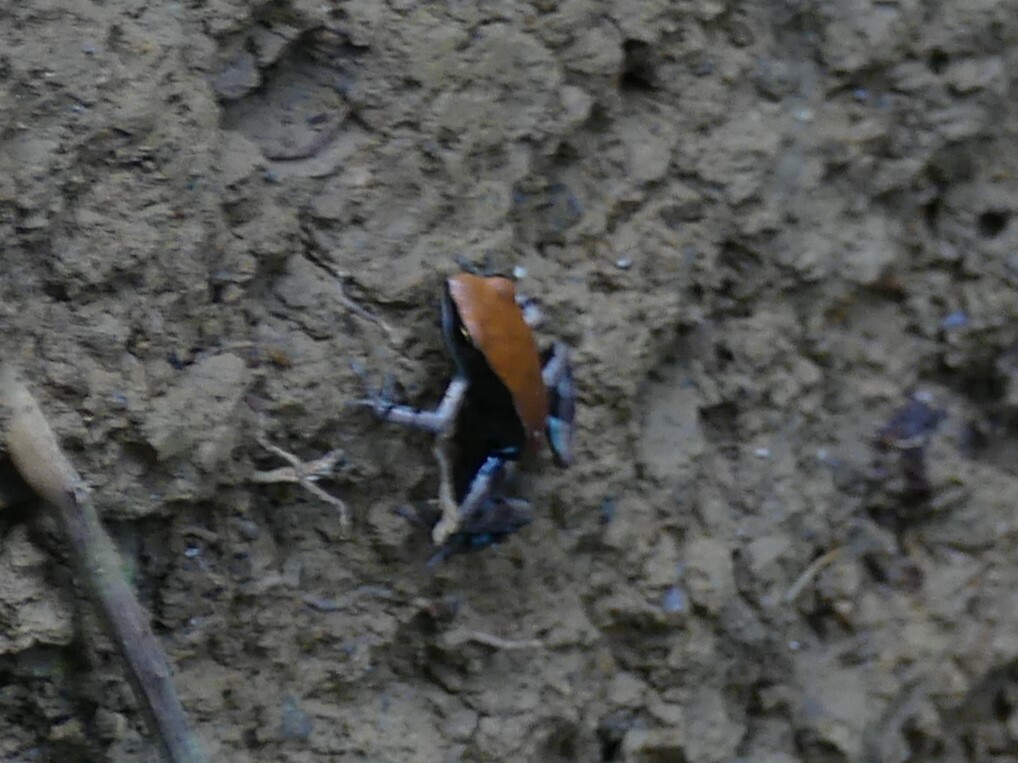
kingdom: Animalia
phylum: Chordata
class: Amphibia
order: Anura
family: Mantellidae
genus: Mantella
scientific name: Mantella ebenaui
